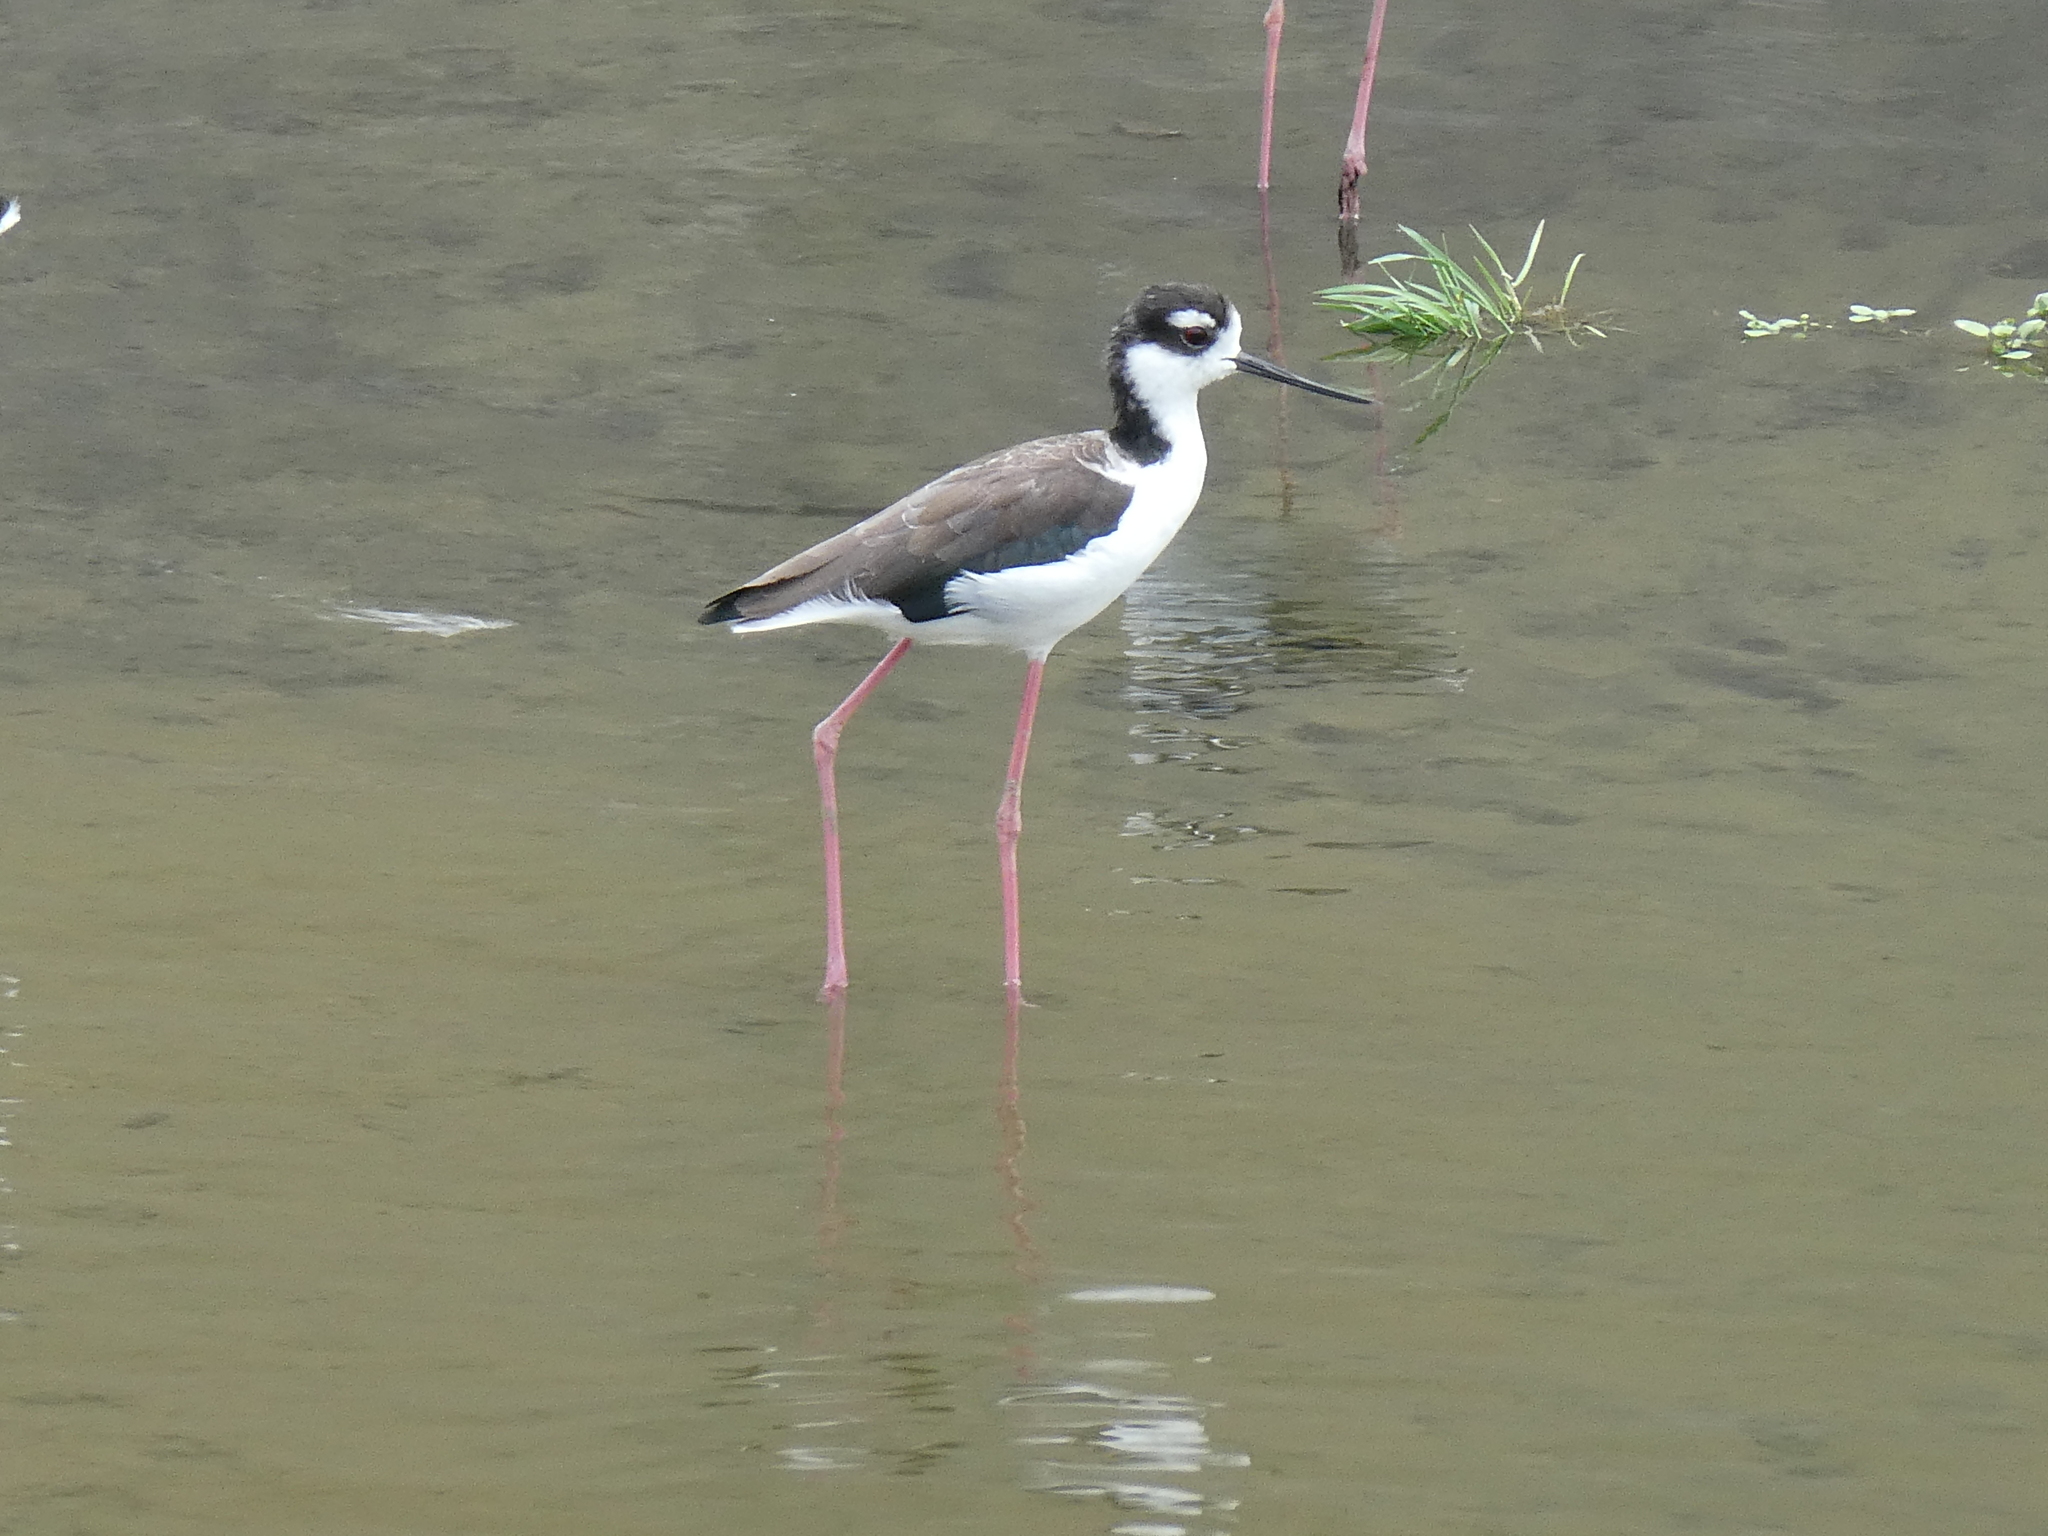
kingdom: Animalia
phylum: Chordata
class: Aves
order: Charadriiformes
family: Recurvirostridae
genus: Himantopus
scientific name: Himantopus mexicanus
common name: Black-necked stilt
